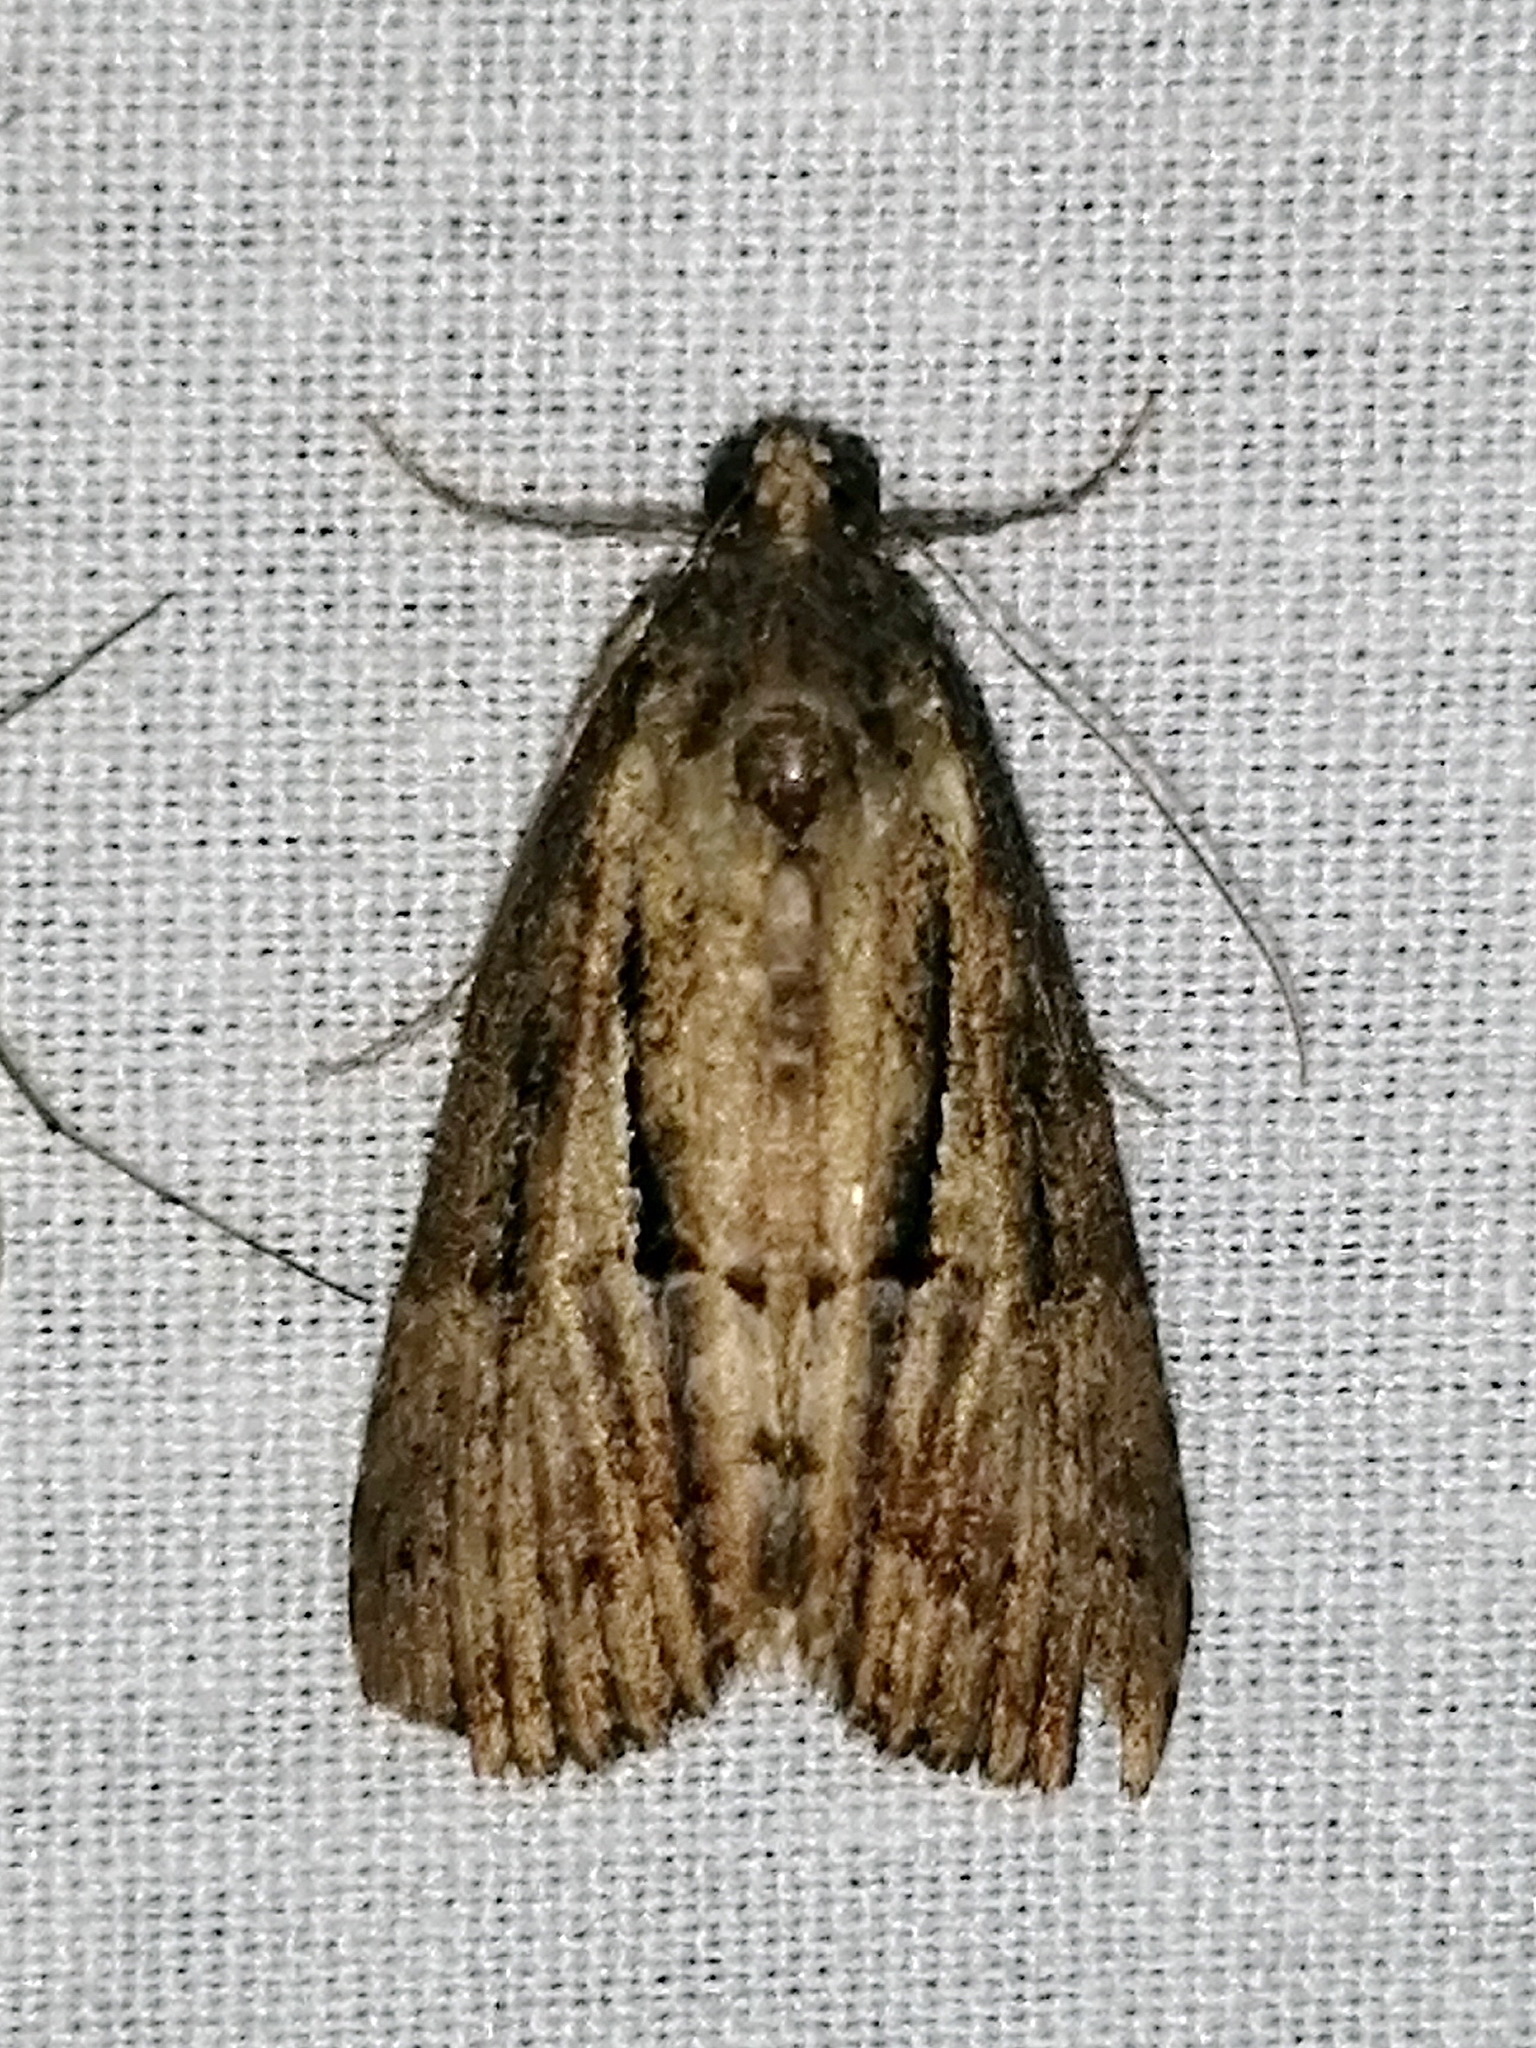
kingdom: Animalia
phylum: Arthropoda
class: Insecta
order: Lepidoptera
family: Erebidae
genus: Hypena
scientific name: Hypena scabra
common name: Green cloverworm
